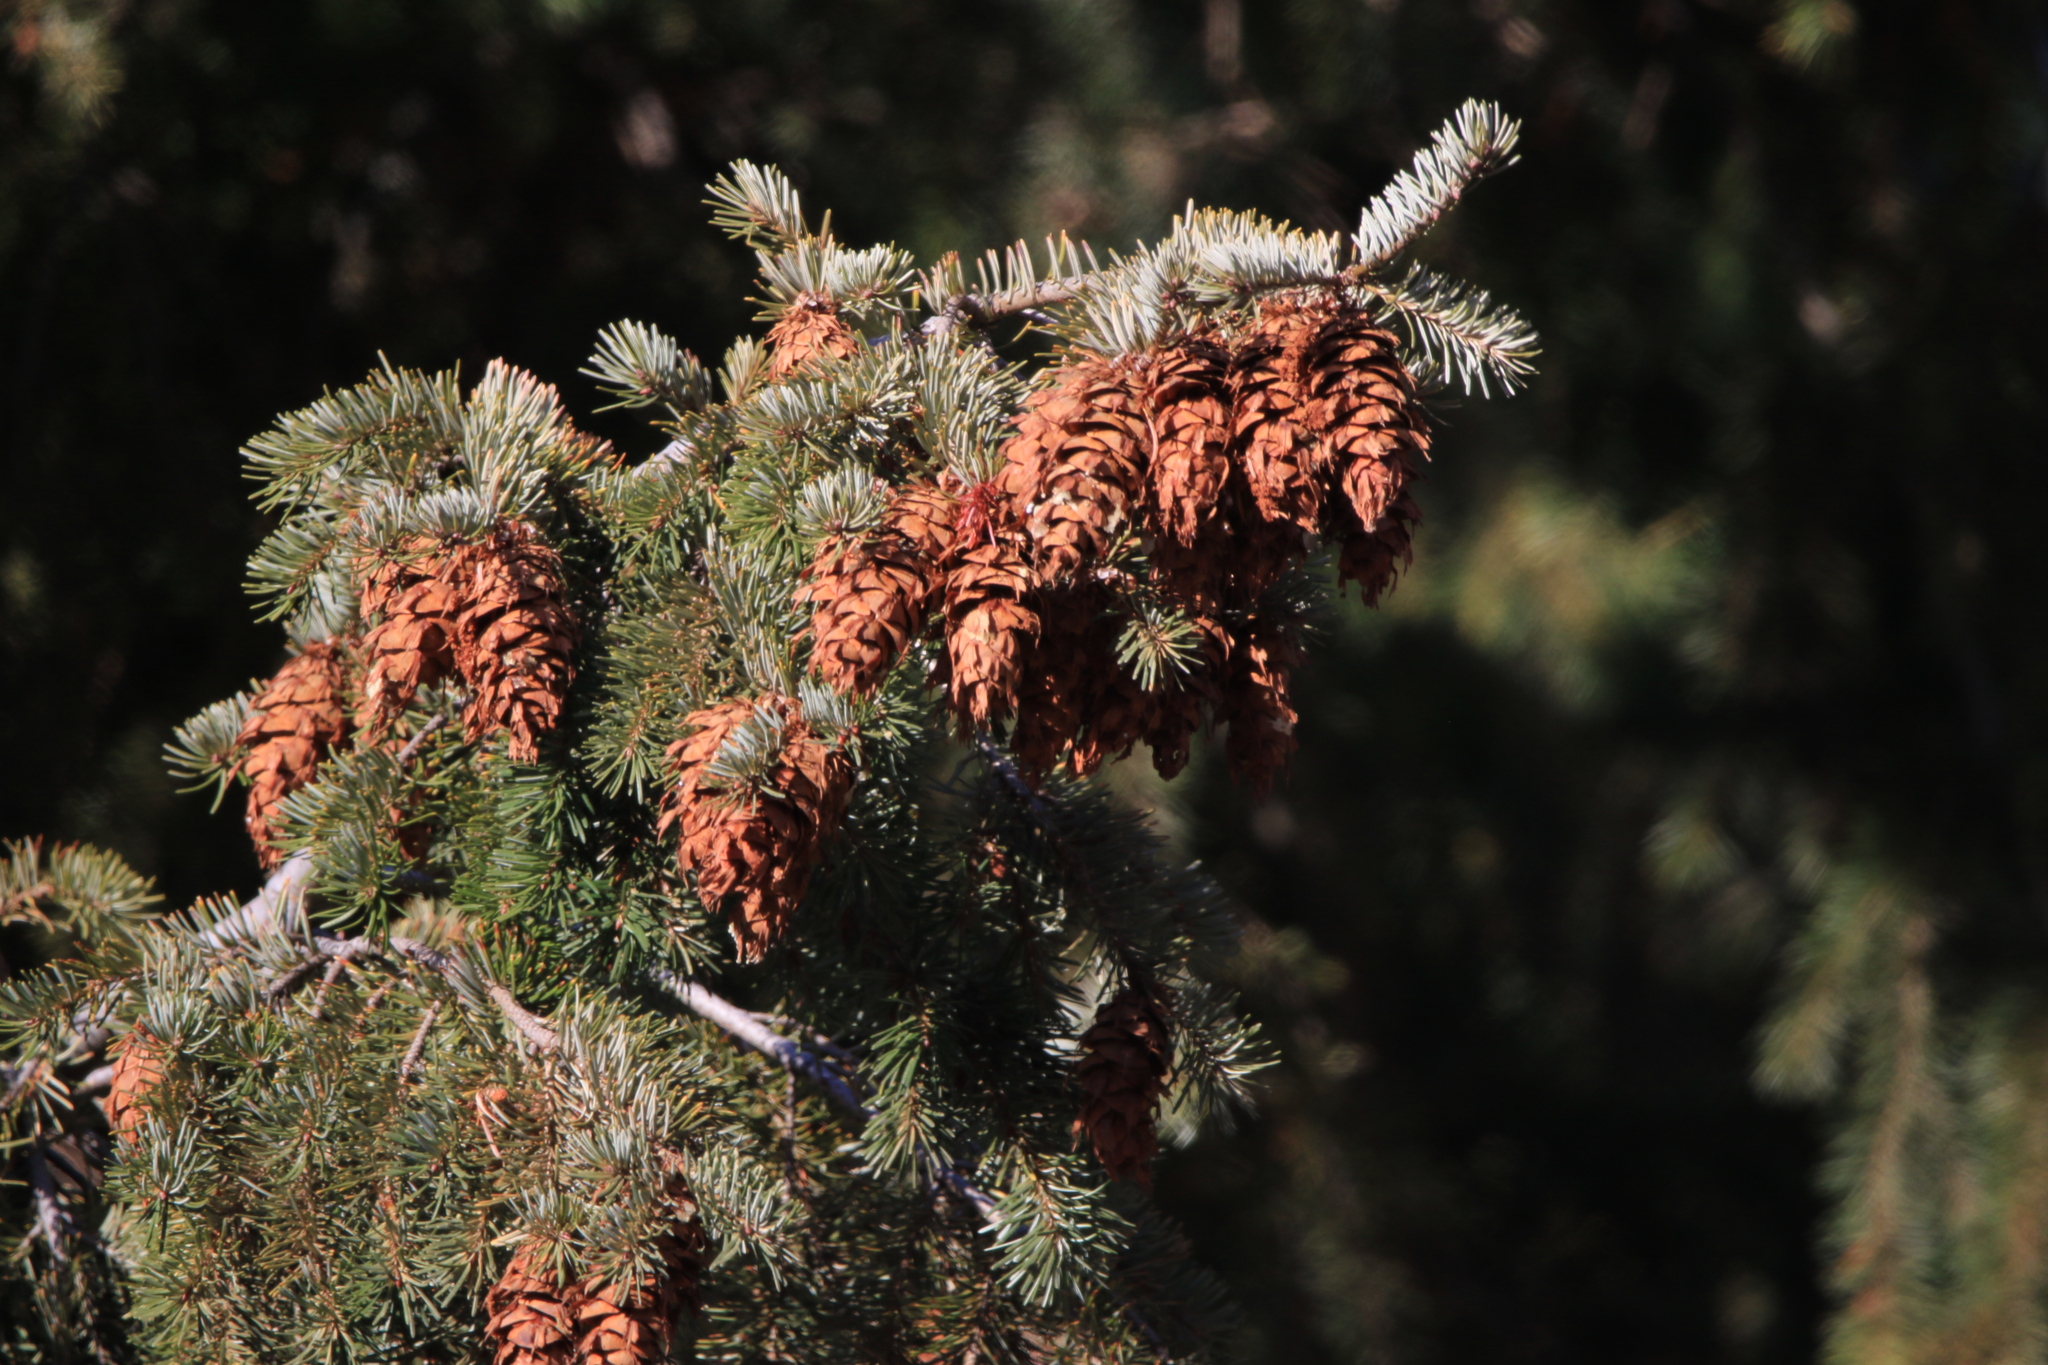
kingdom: Plantae
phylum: Tracheophyta
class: Pinopsida
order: Pinales
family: Pinaceae
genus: Pseudotsuga
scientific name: Pseudotsuga menziesii
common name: Douglas fir
